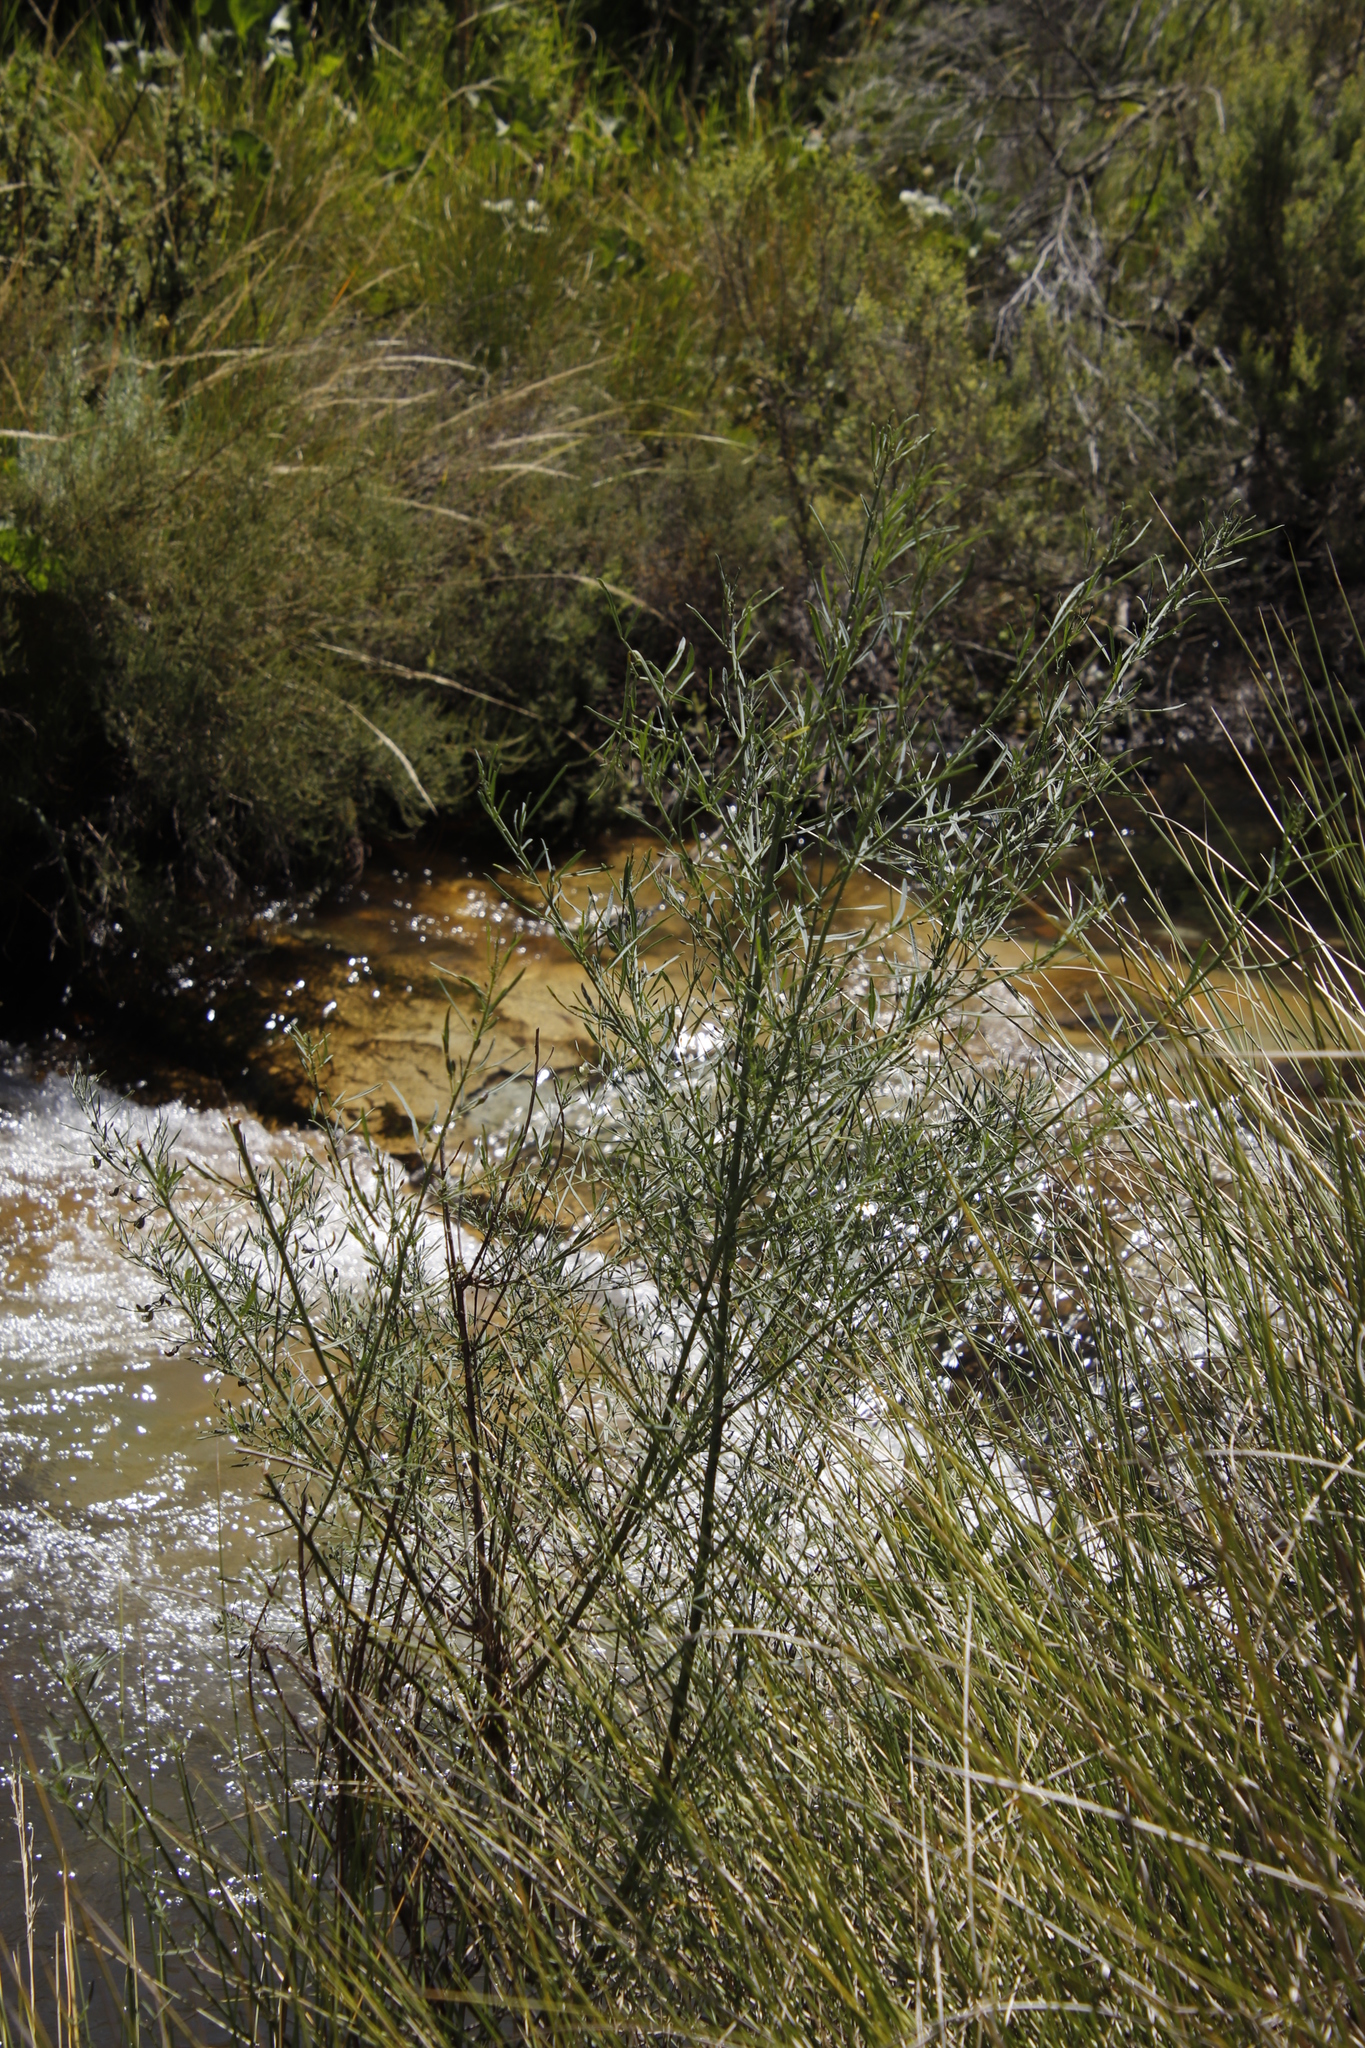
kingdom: Plantae
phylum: Tracheophyta
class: Magnoliopsida
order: Fabales
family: Fabaceae
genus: Psoralea
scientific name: Psoralea oligophylla
